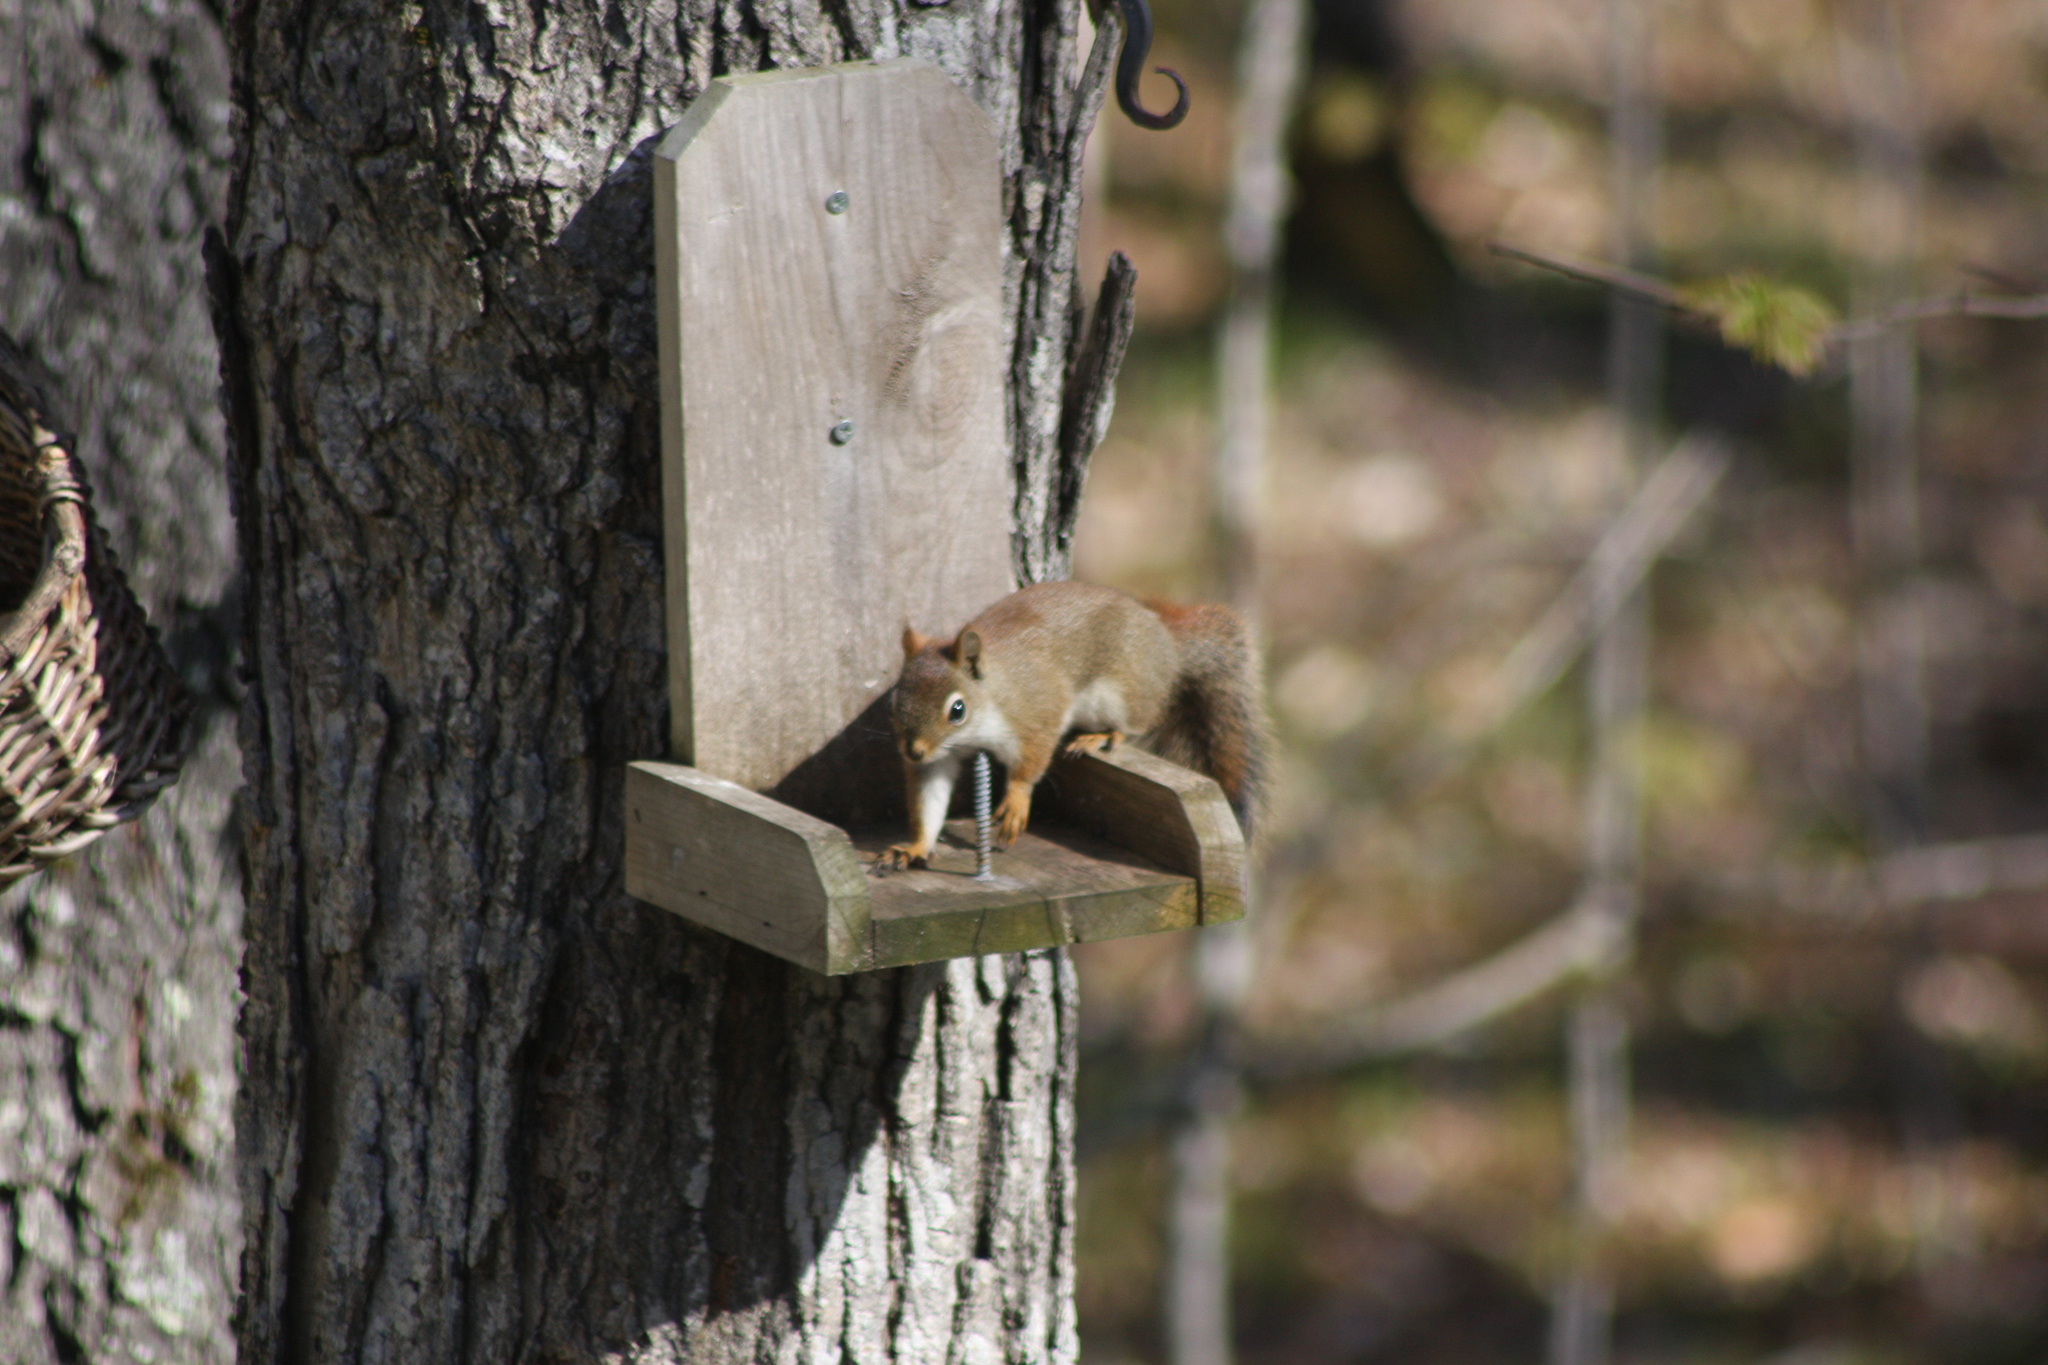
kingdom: Animalia
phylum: Chordata
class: Mammalia
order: Rodentia
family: Sciuridae
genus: Tamiasciurus
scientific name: Tamiasciurus hudsonicus
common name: Red squirrel
